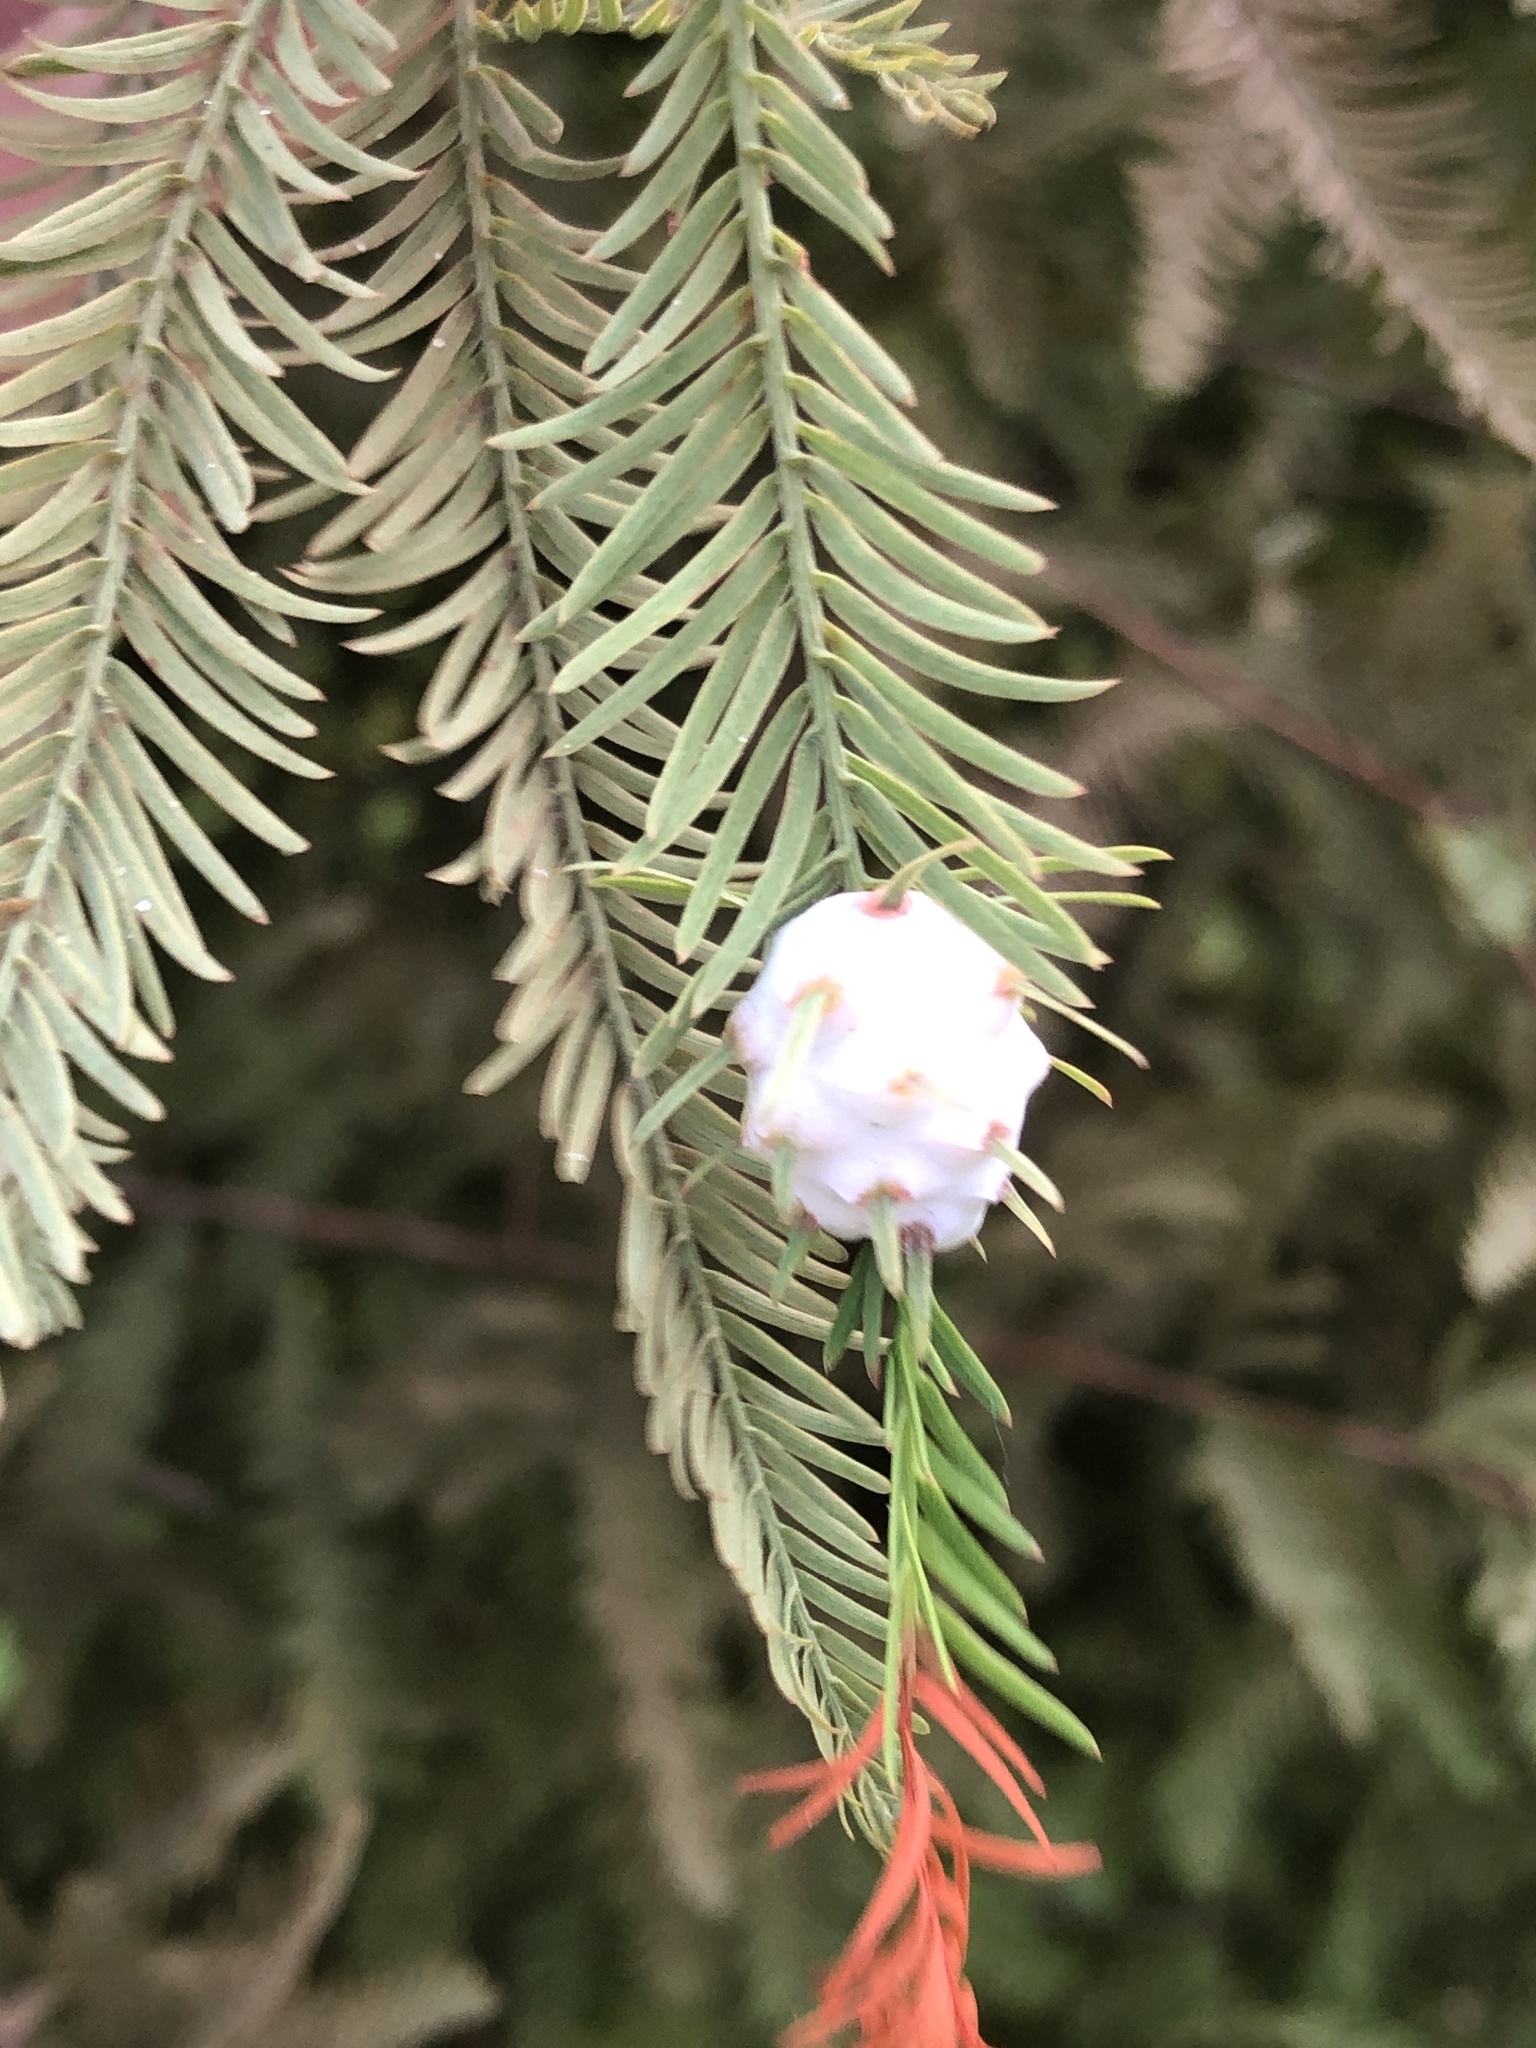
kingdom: Animalia
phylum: Arthropoda
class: Insecta
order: Diptera
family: Cecidomyiidae
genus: Taxodiomyia
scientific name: Taxodiomyia cupressiananassa
